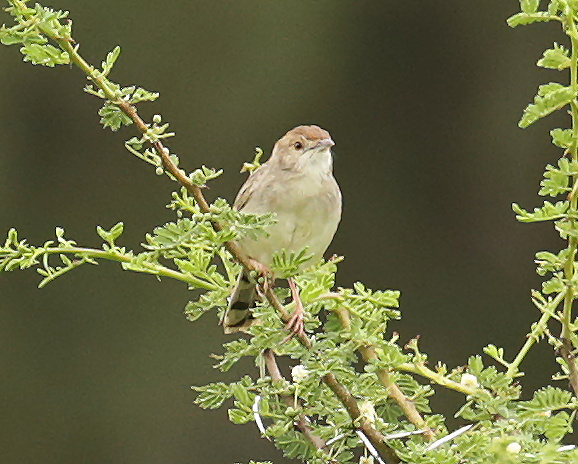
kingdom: Animalia
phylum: Chordata
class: Aves
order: Passeriformes
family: Cisticolidae
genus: Cisticola
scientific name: Cisticola chiniana
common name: Rattling cisticola
